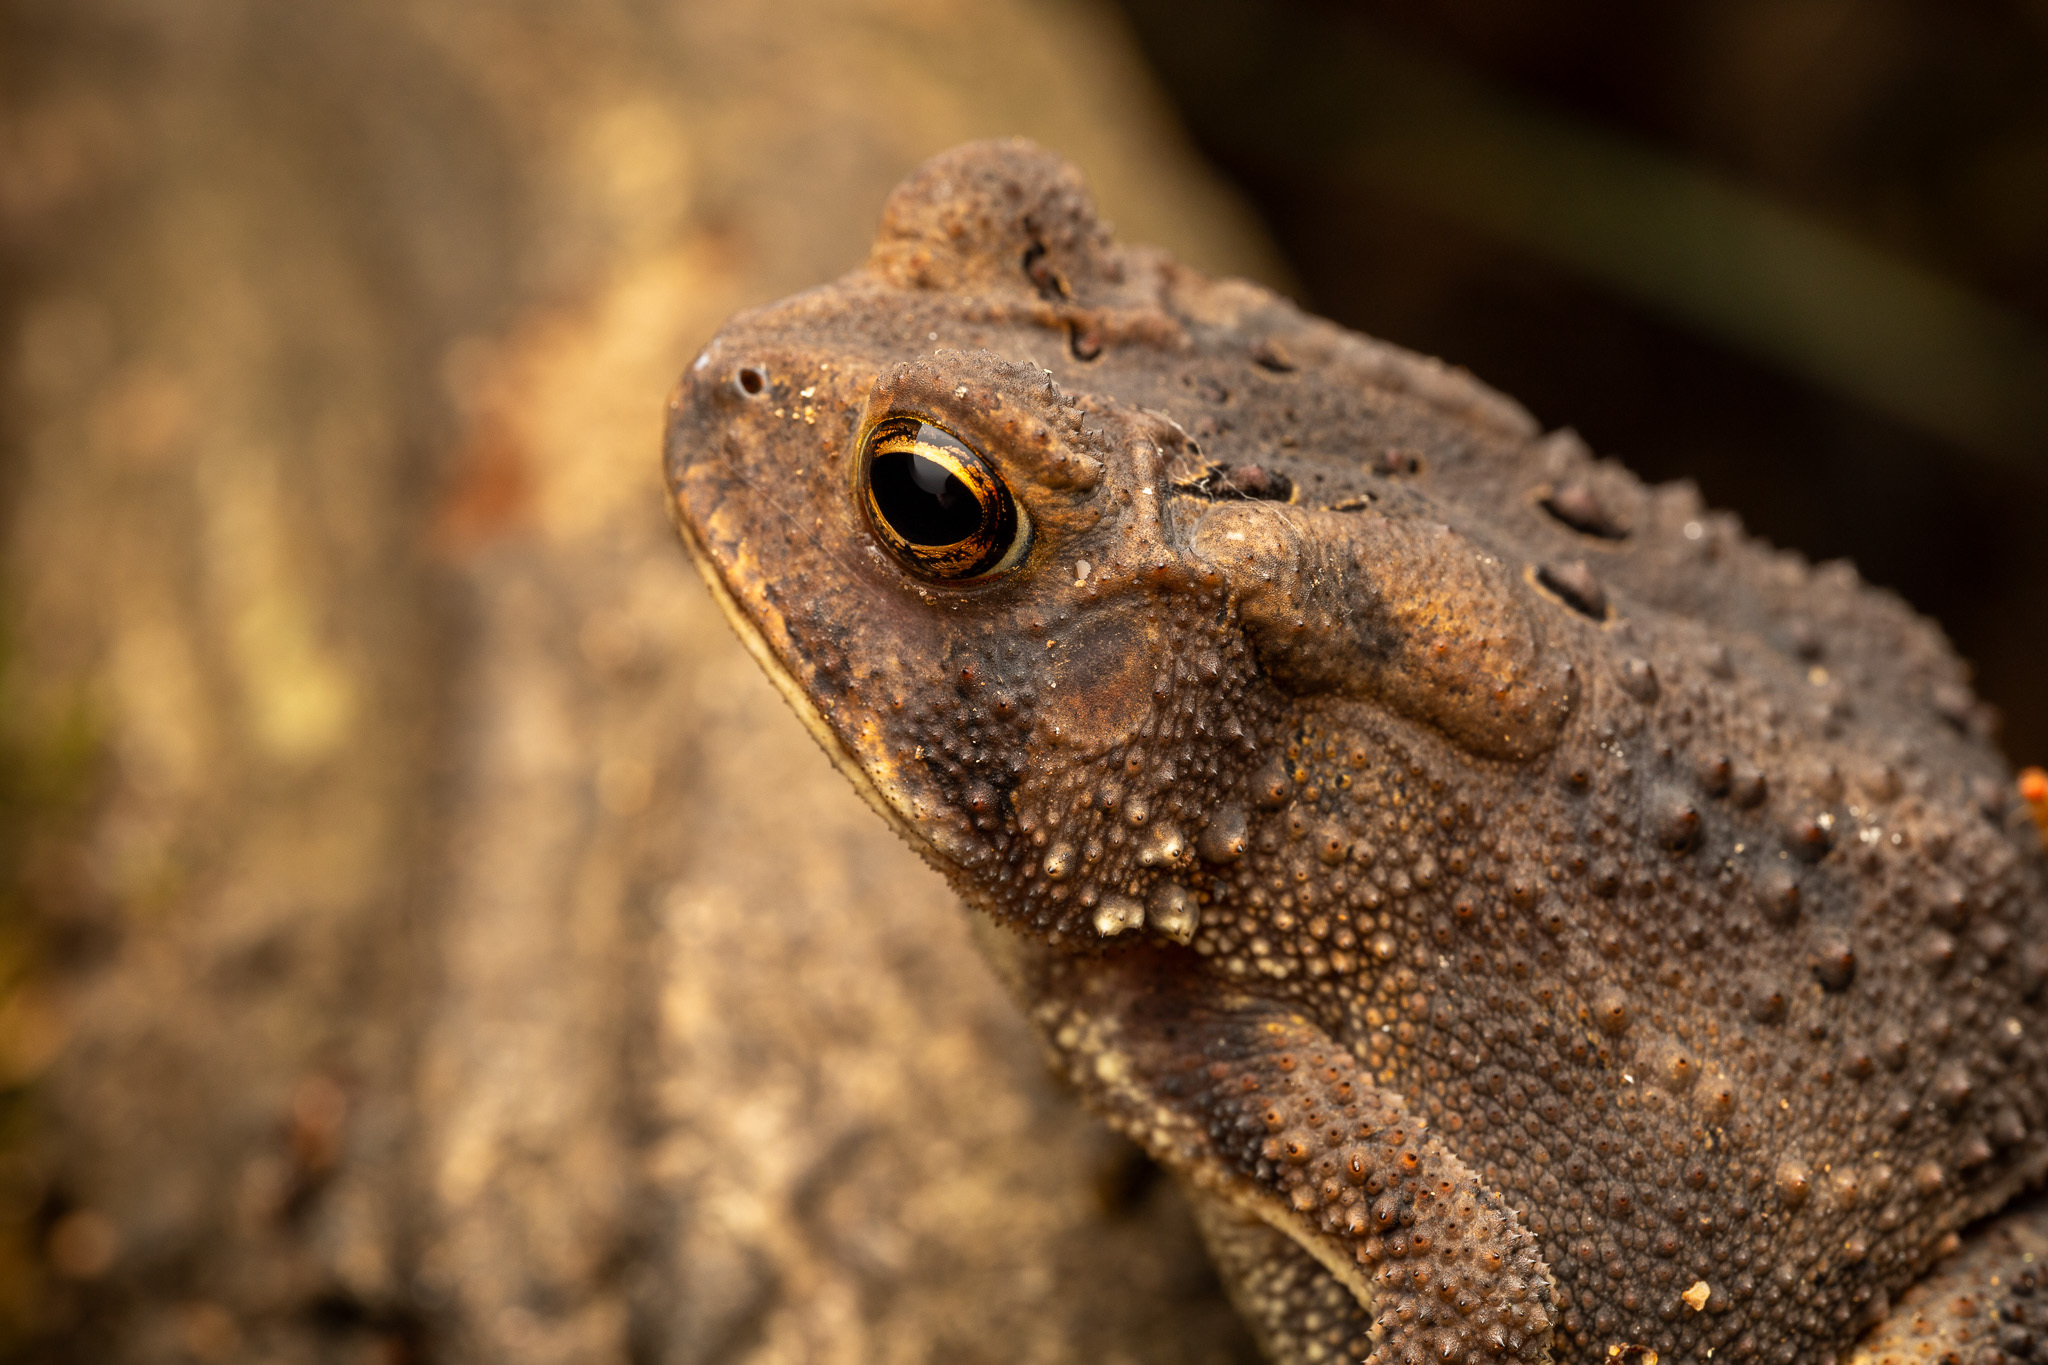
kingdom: Animalia
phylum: Chordata
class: Amphibia
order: Anura
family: Bufonidae
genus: Anaxyrus
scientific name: Anaxyrus americanus
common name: American toad
